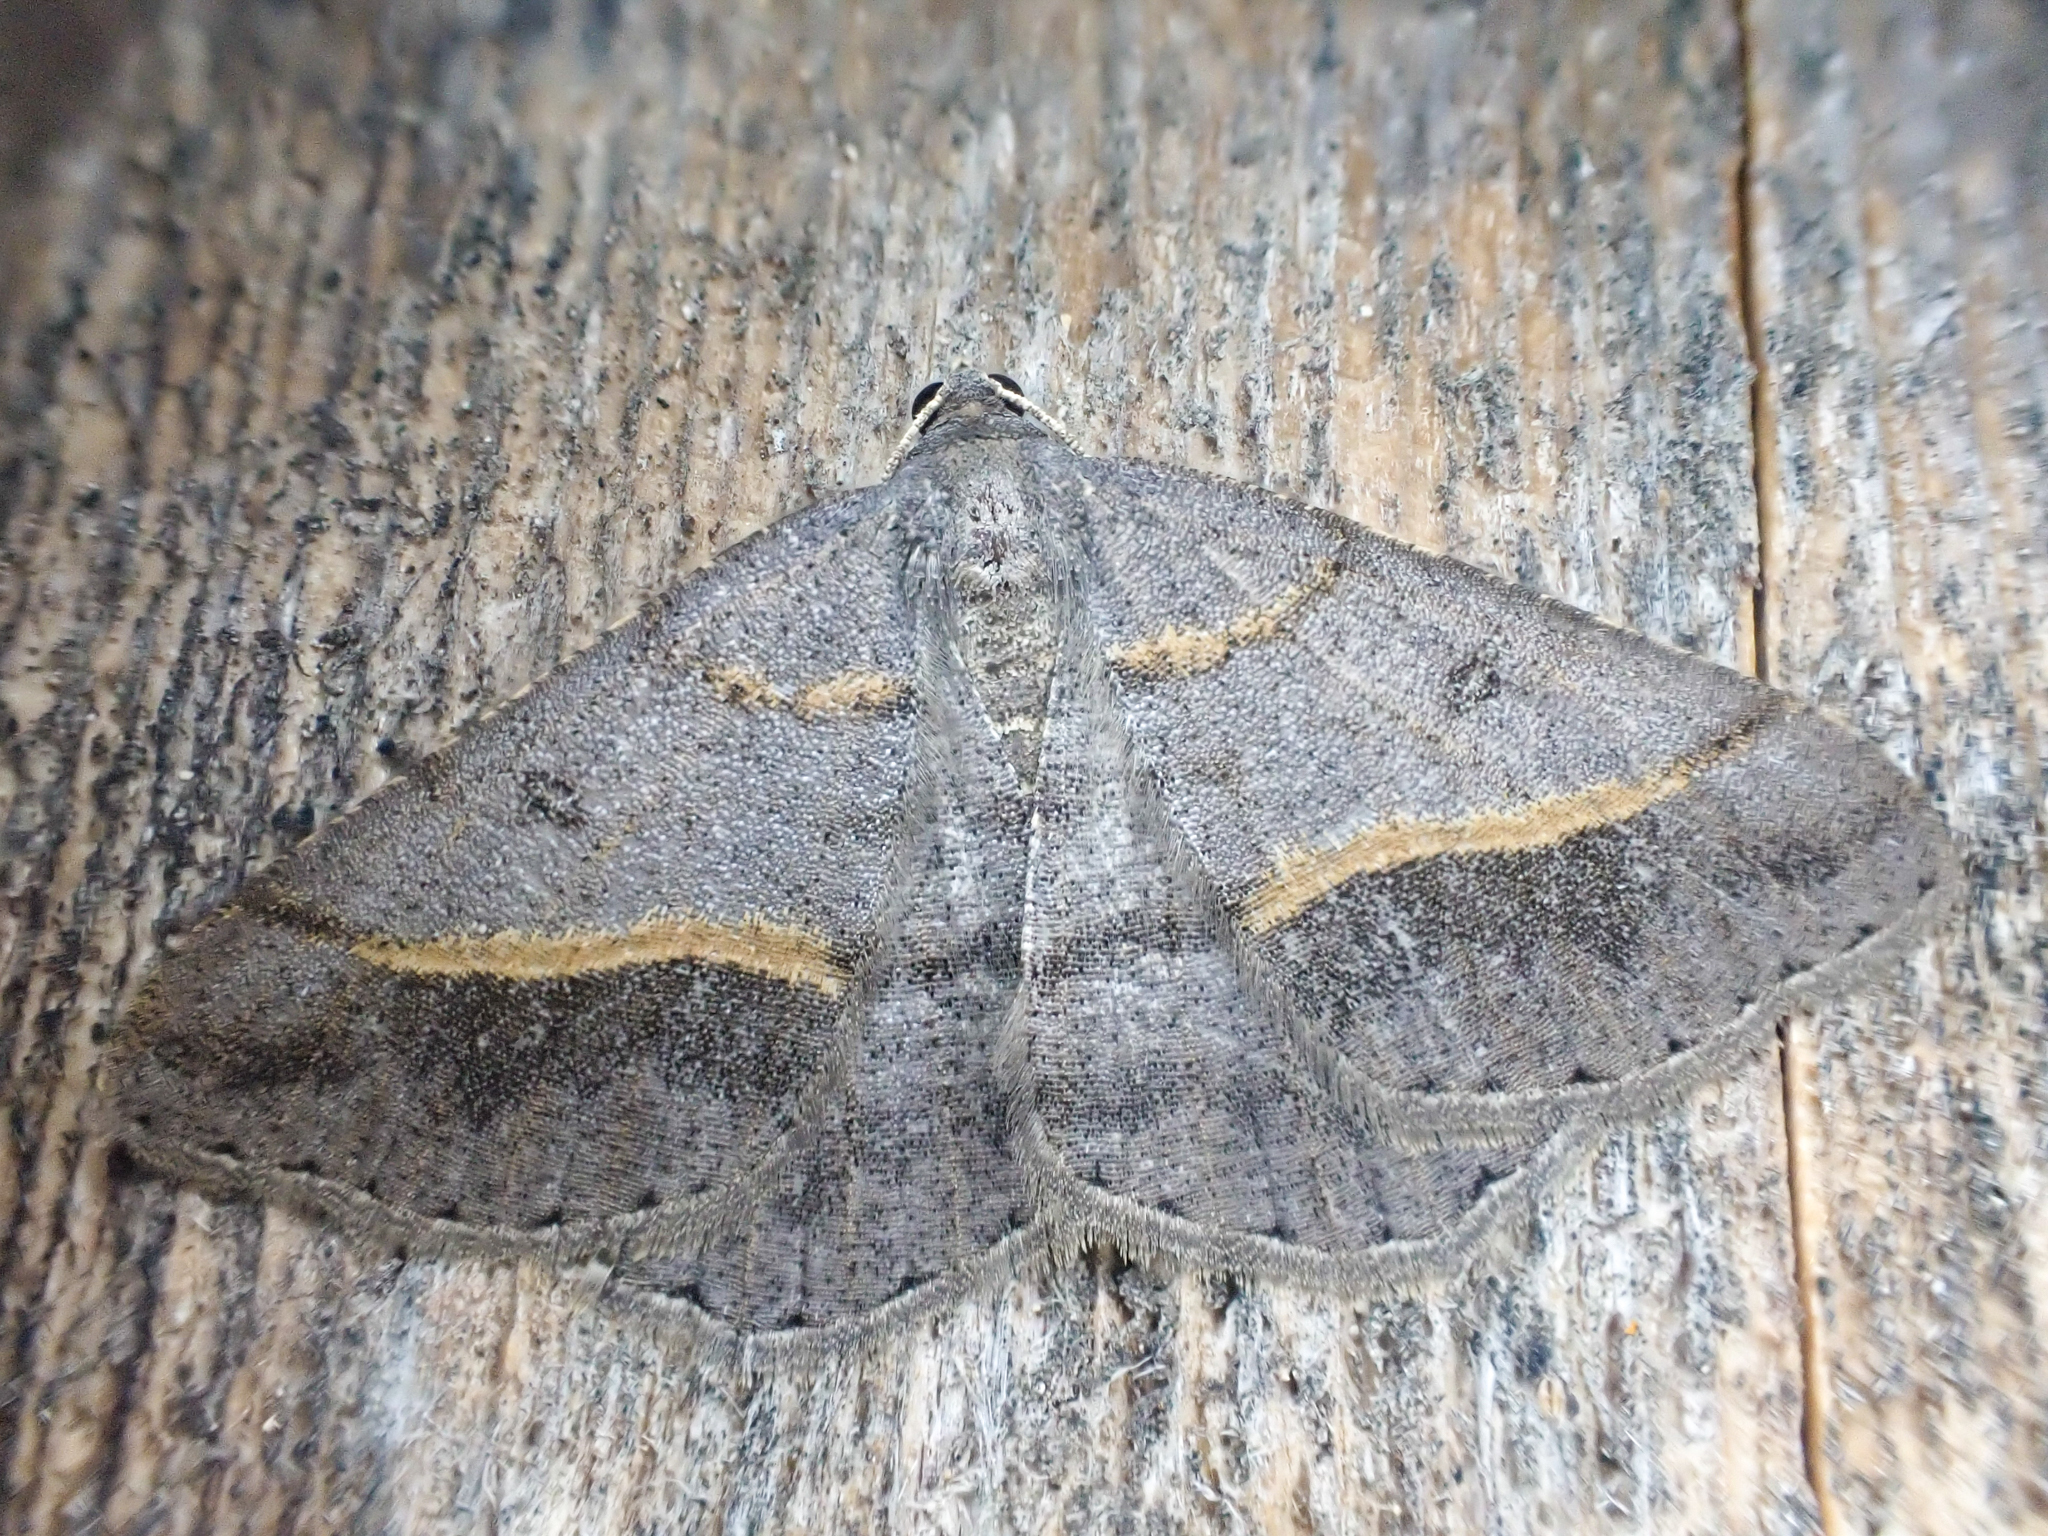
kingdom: Animalia
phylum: Arthropoda
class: Insecta
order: Lepidoptera
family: Geometridae
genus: Digrammia
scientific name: Digrammia neptaria
